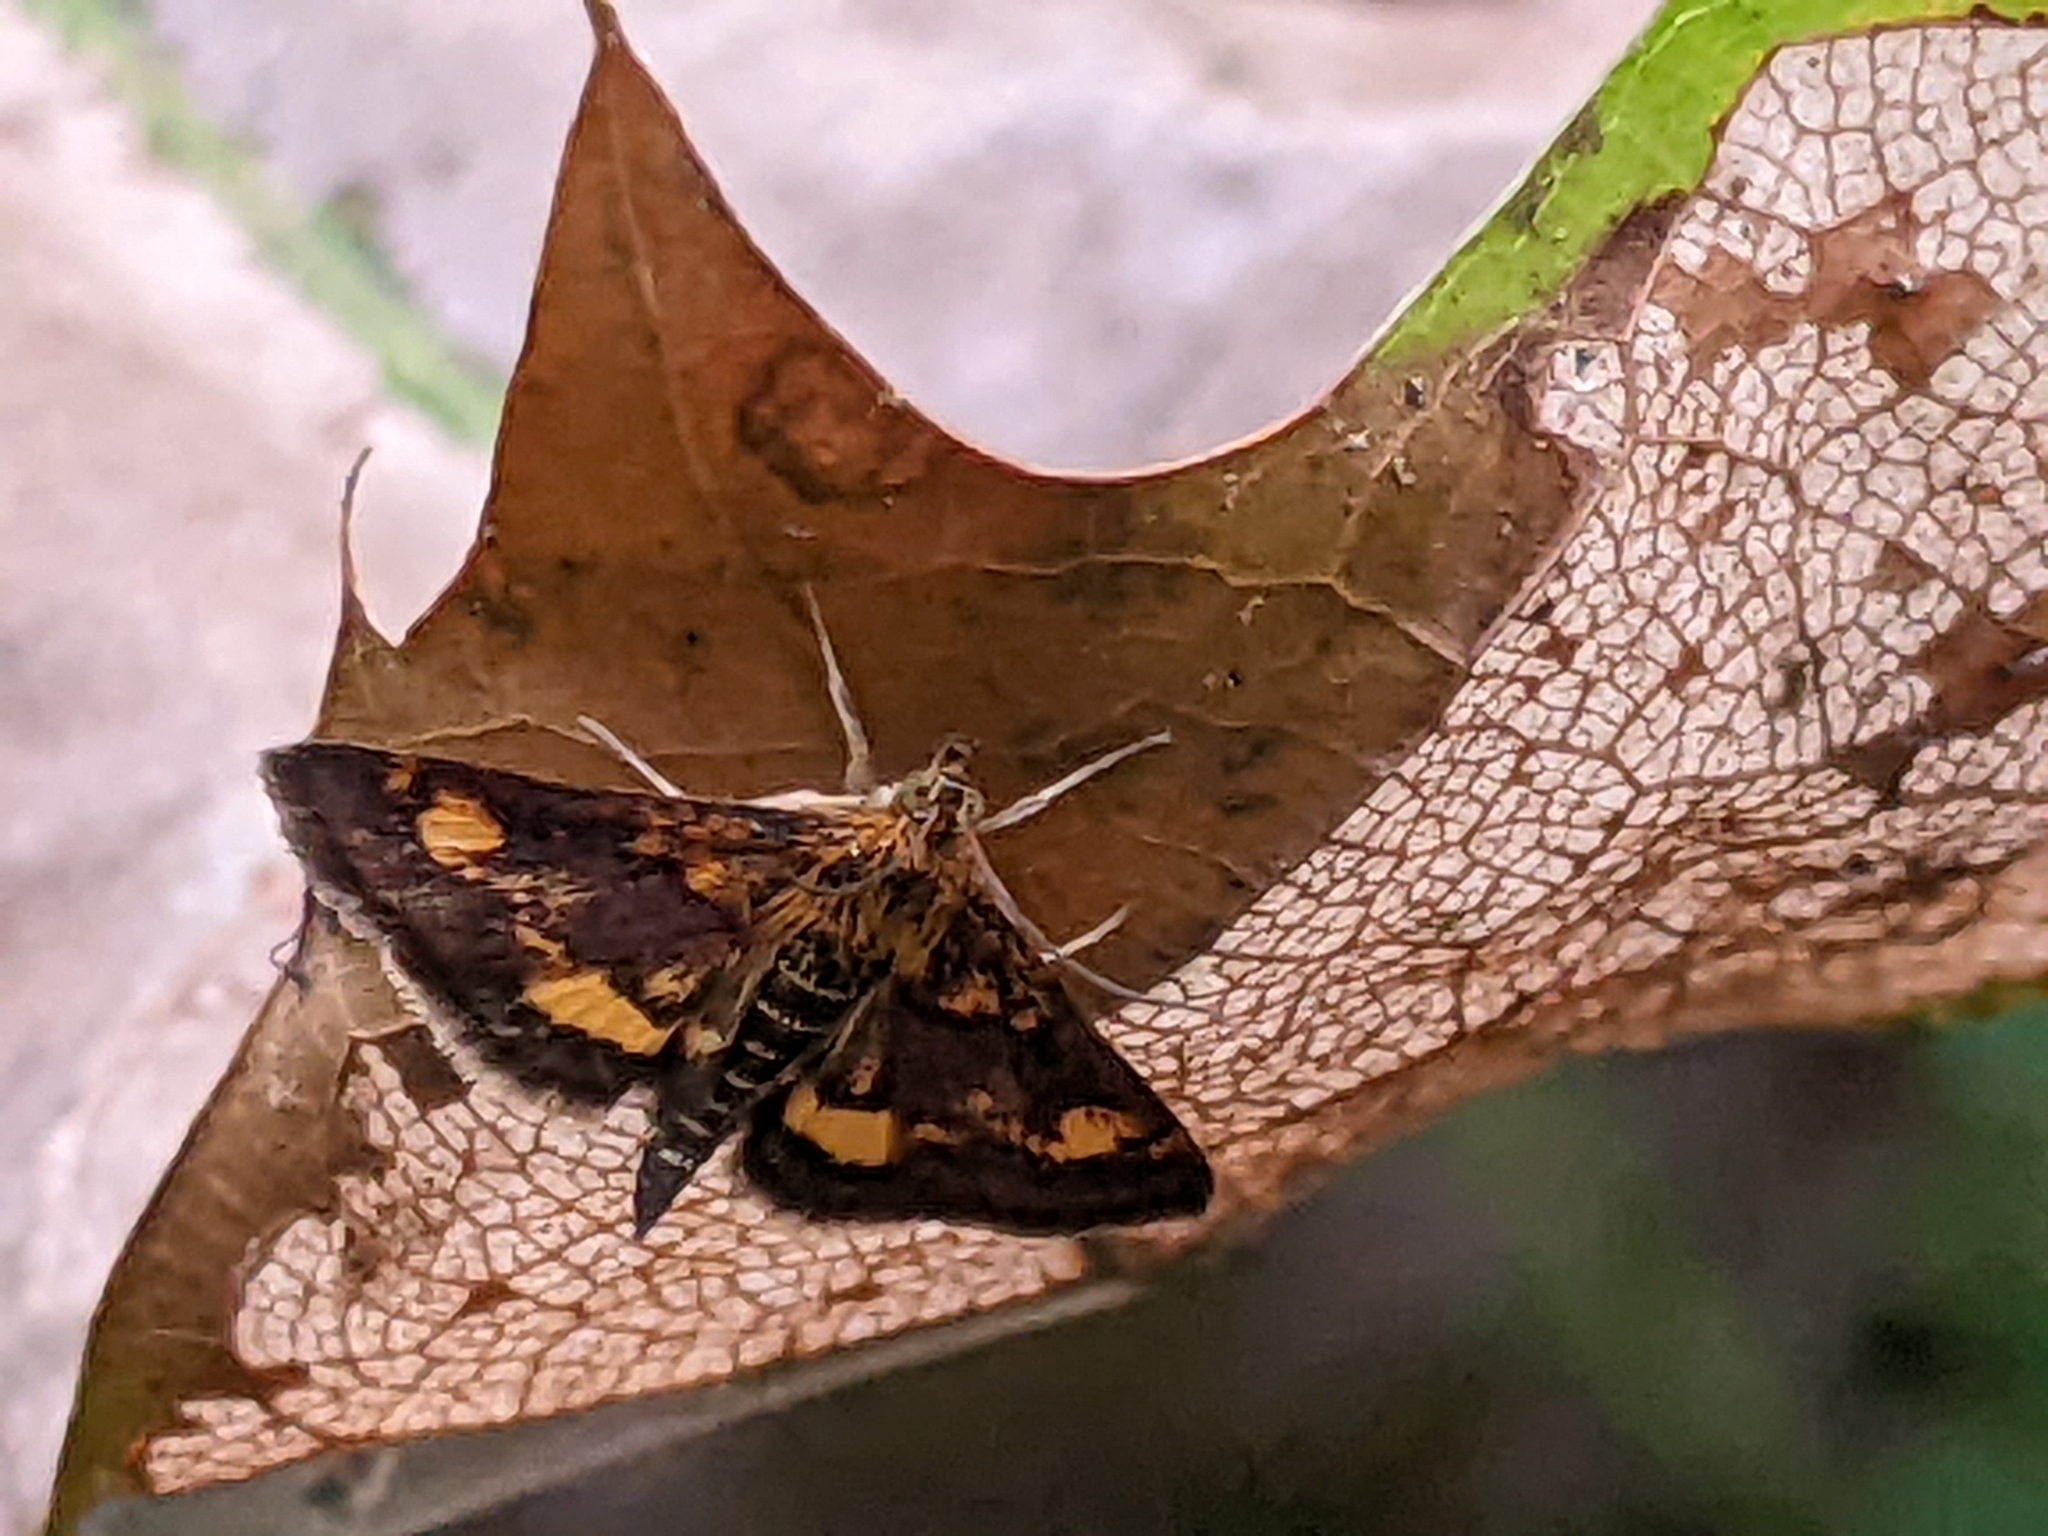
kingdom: Animalia
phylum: Arthropoda
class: Insecta
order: Lepidoptera
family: Crambidae
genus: Pyrausta
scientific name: Pyrausta orphisalis
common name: Orange mint moth
